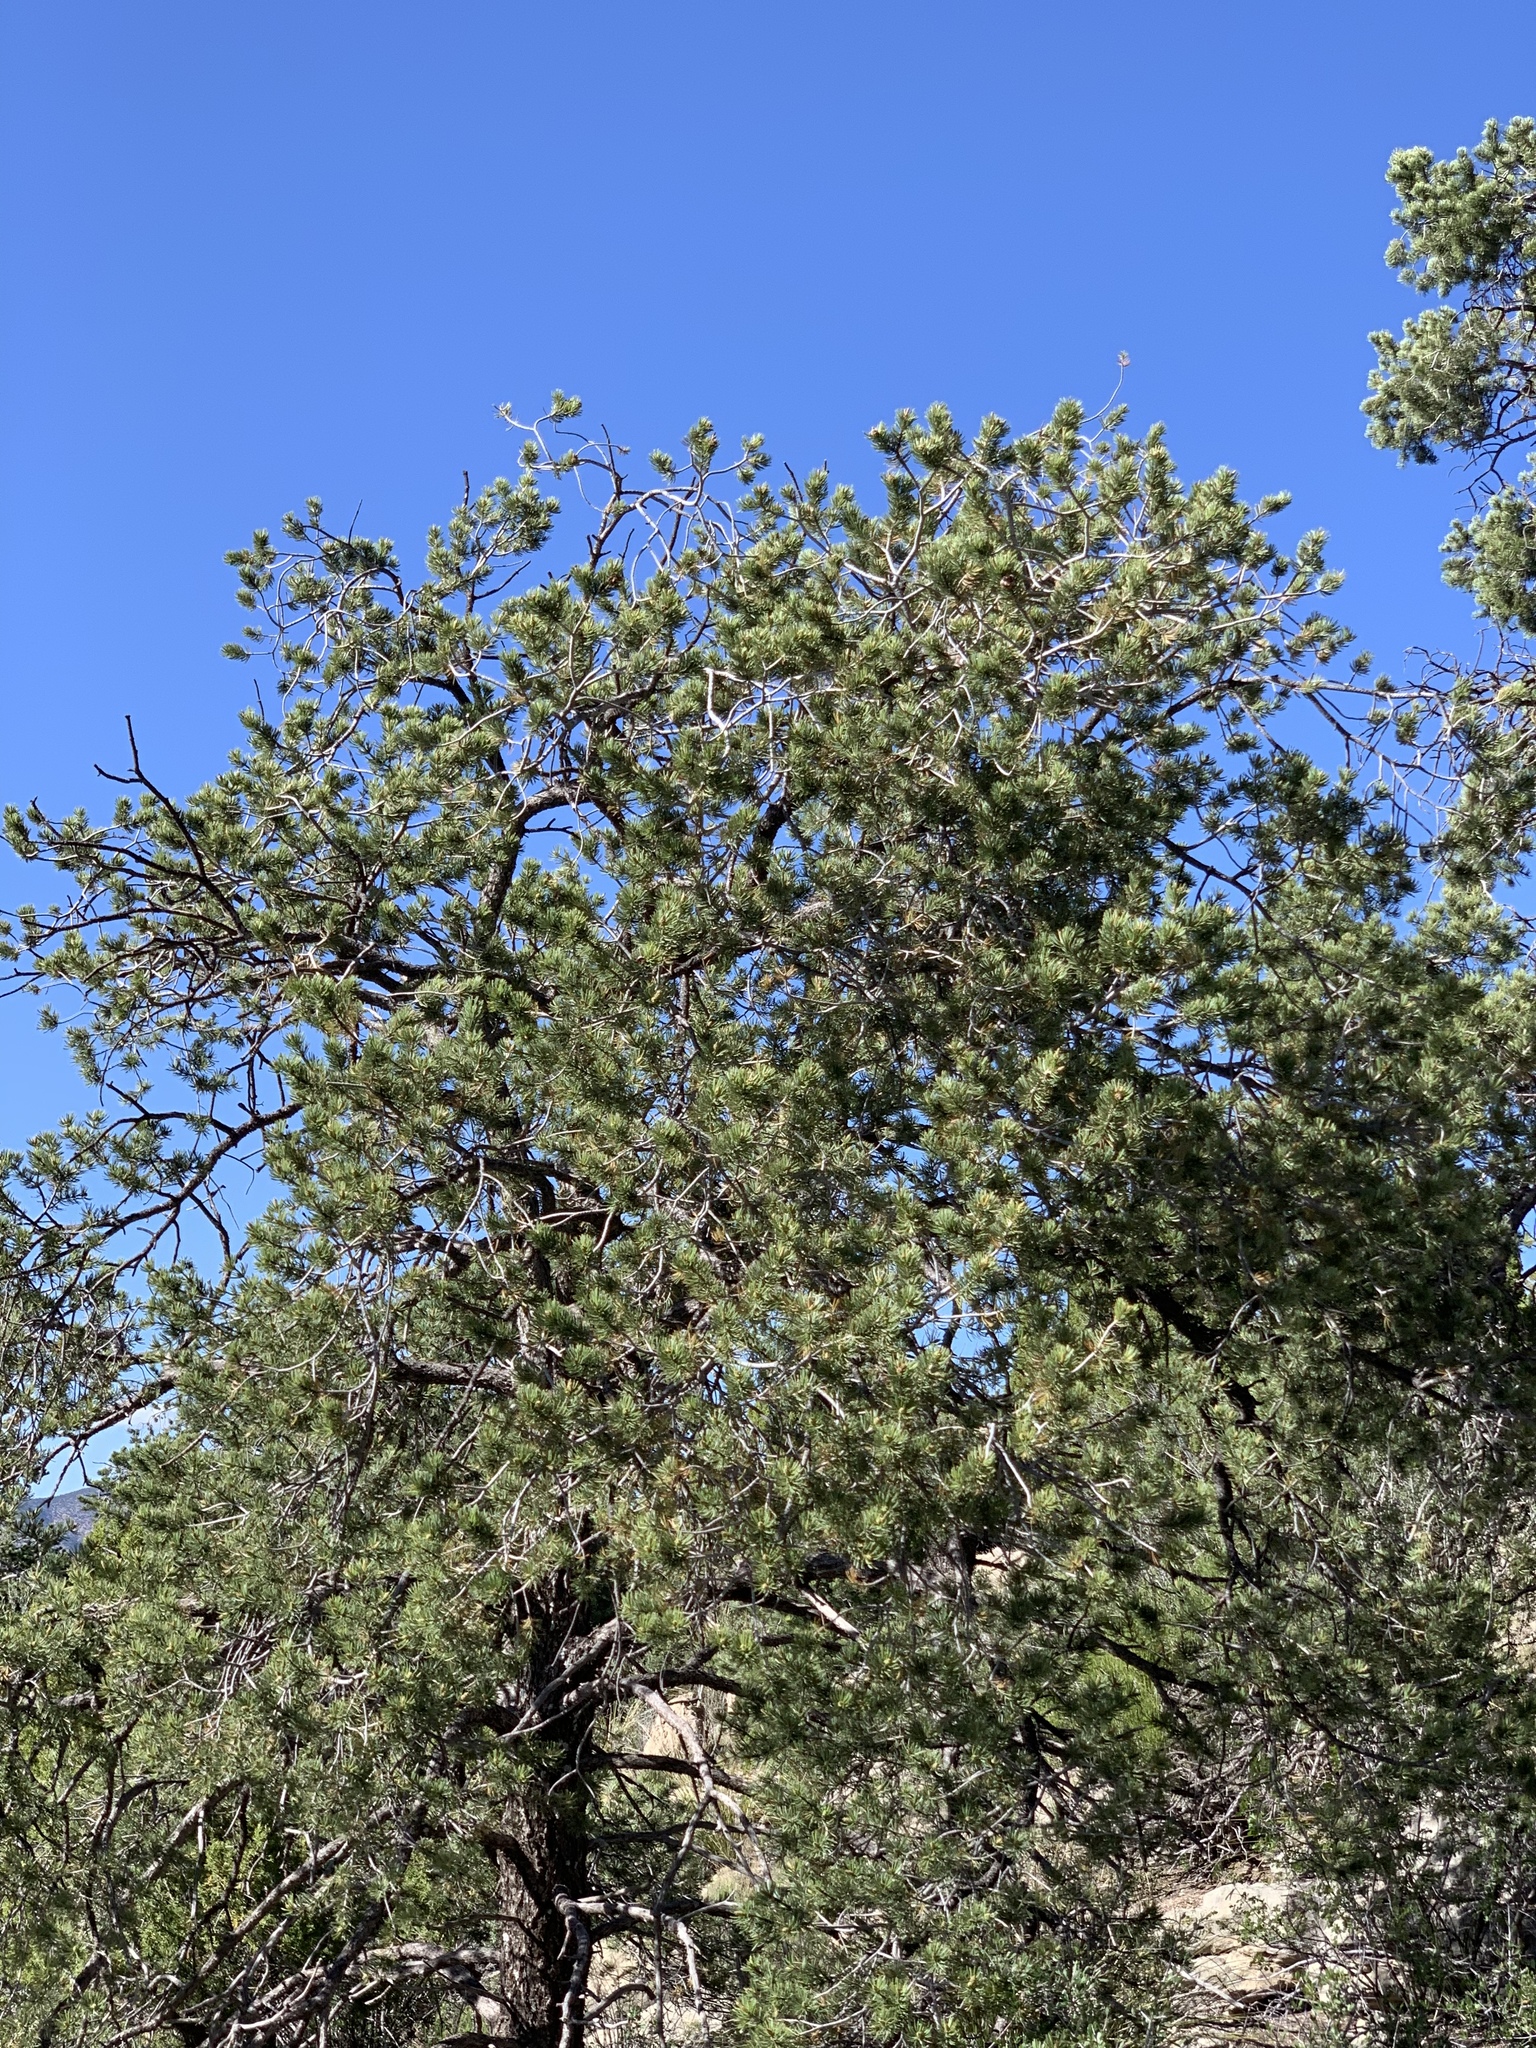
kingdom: Plantae
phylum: Tracheophyta
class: Pinopsida
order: Pinales
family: Pinaceae
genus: Pinus
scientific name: Pinus edulis
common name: Colorado pinyon
